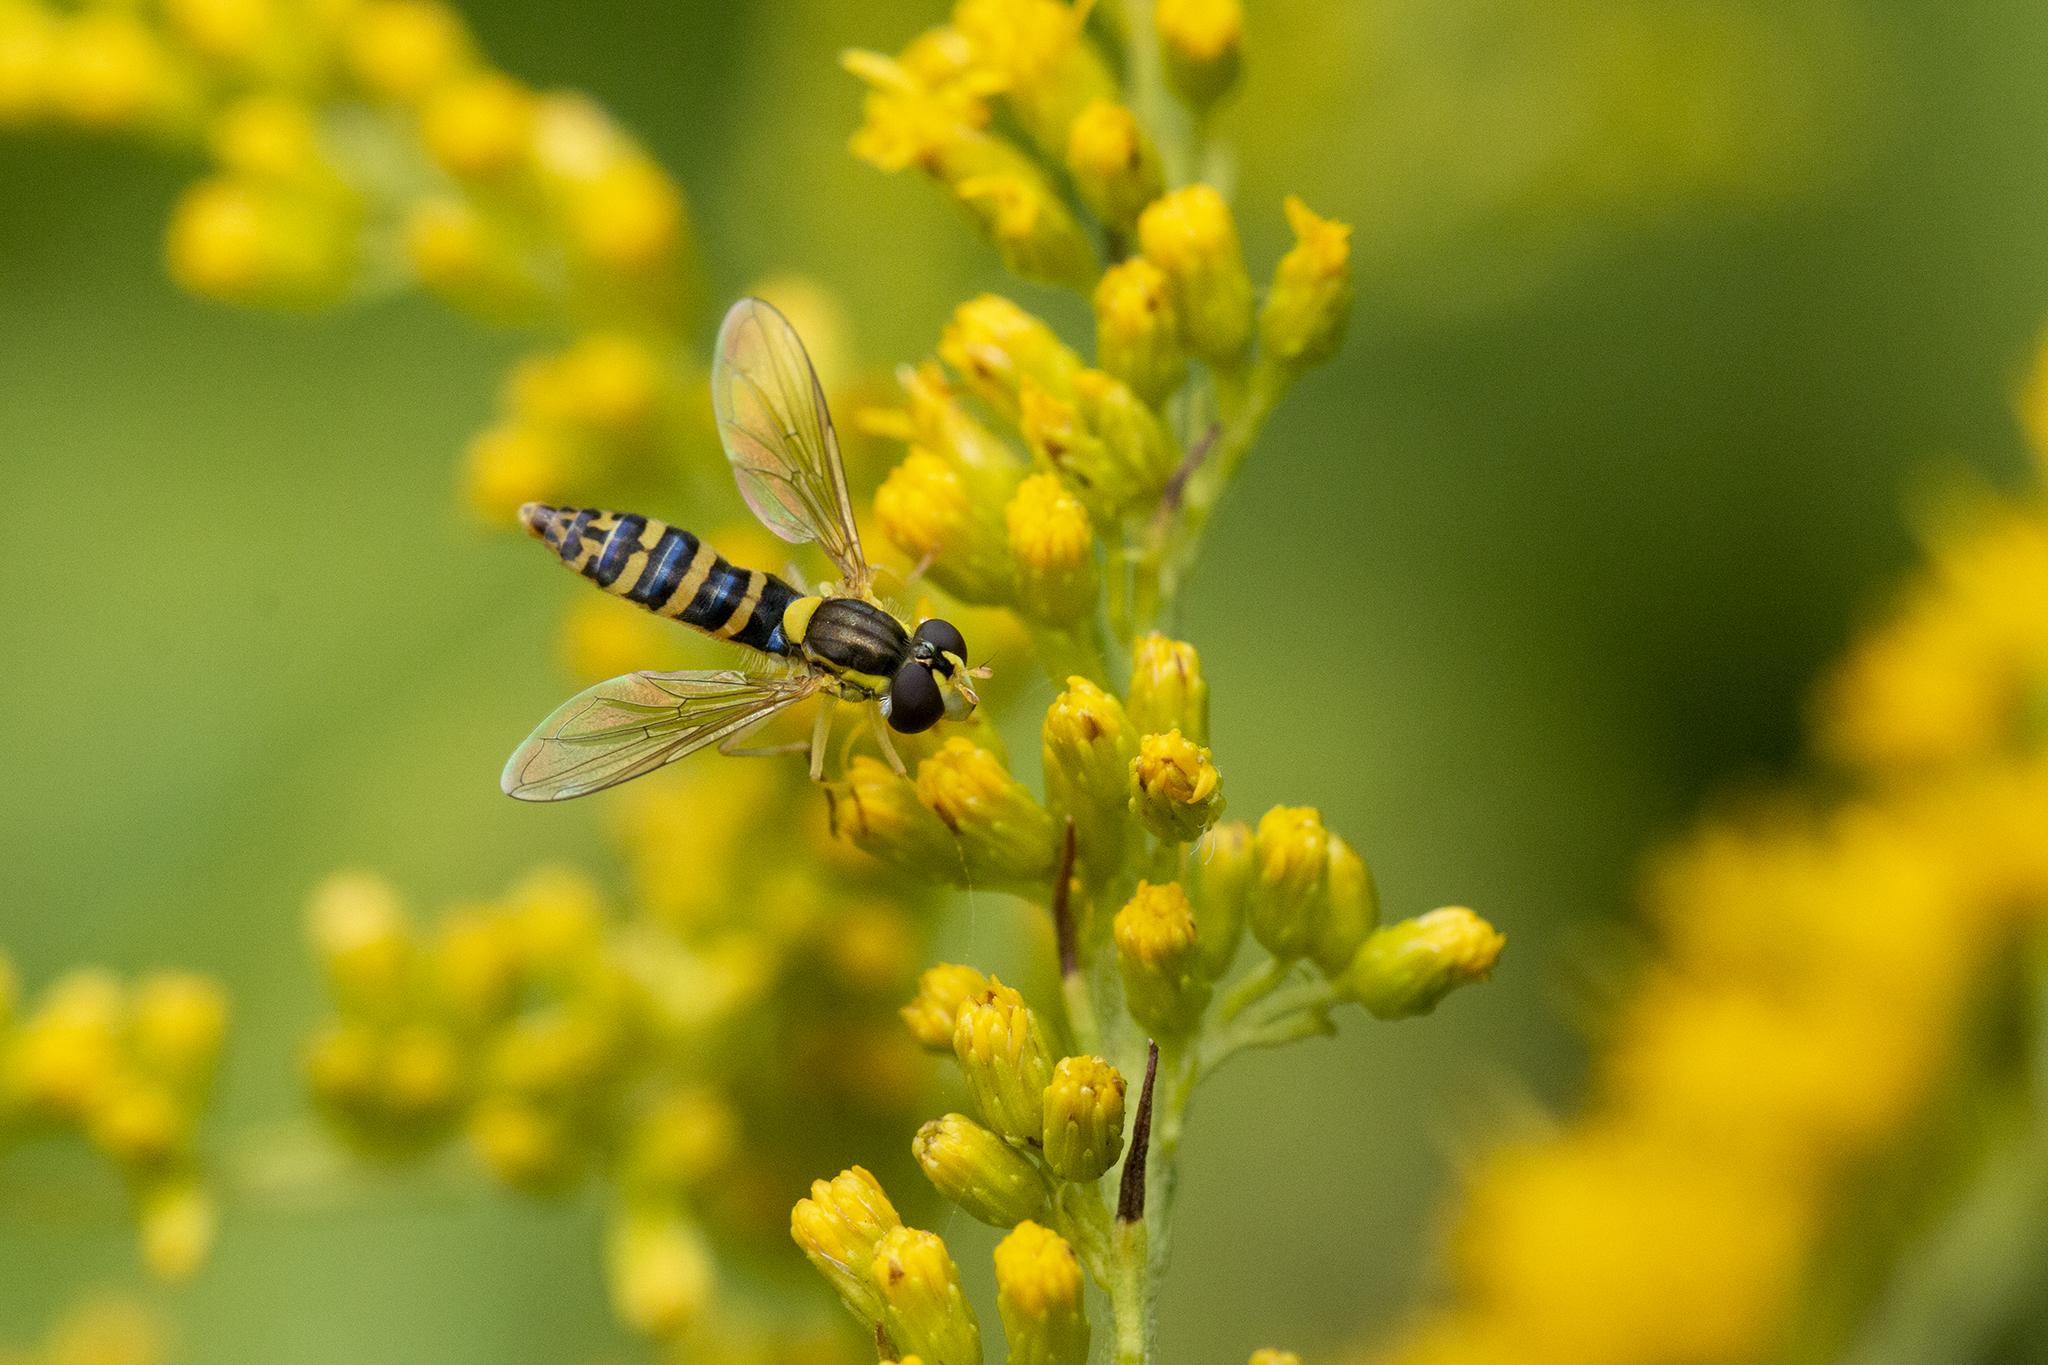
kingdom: Animalia
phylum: Arthropoda
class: Insecta
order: Diptera
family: Syrphidae
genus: Sphaerophoria
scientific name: Sphaerophoria
